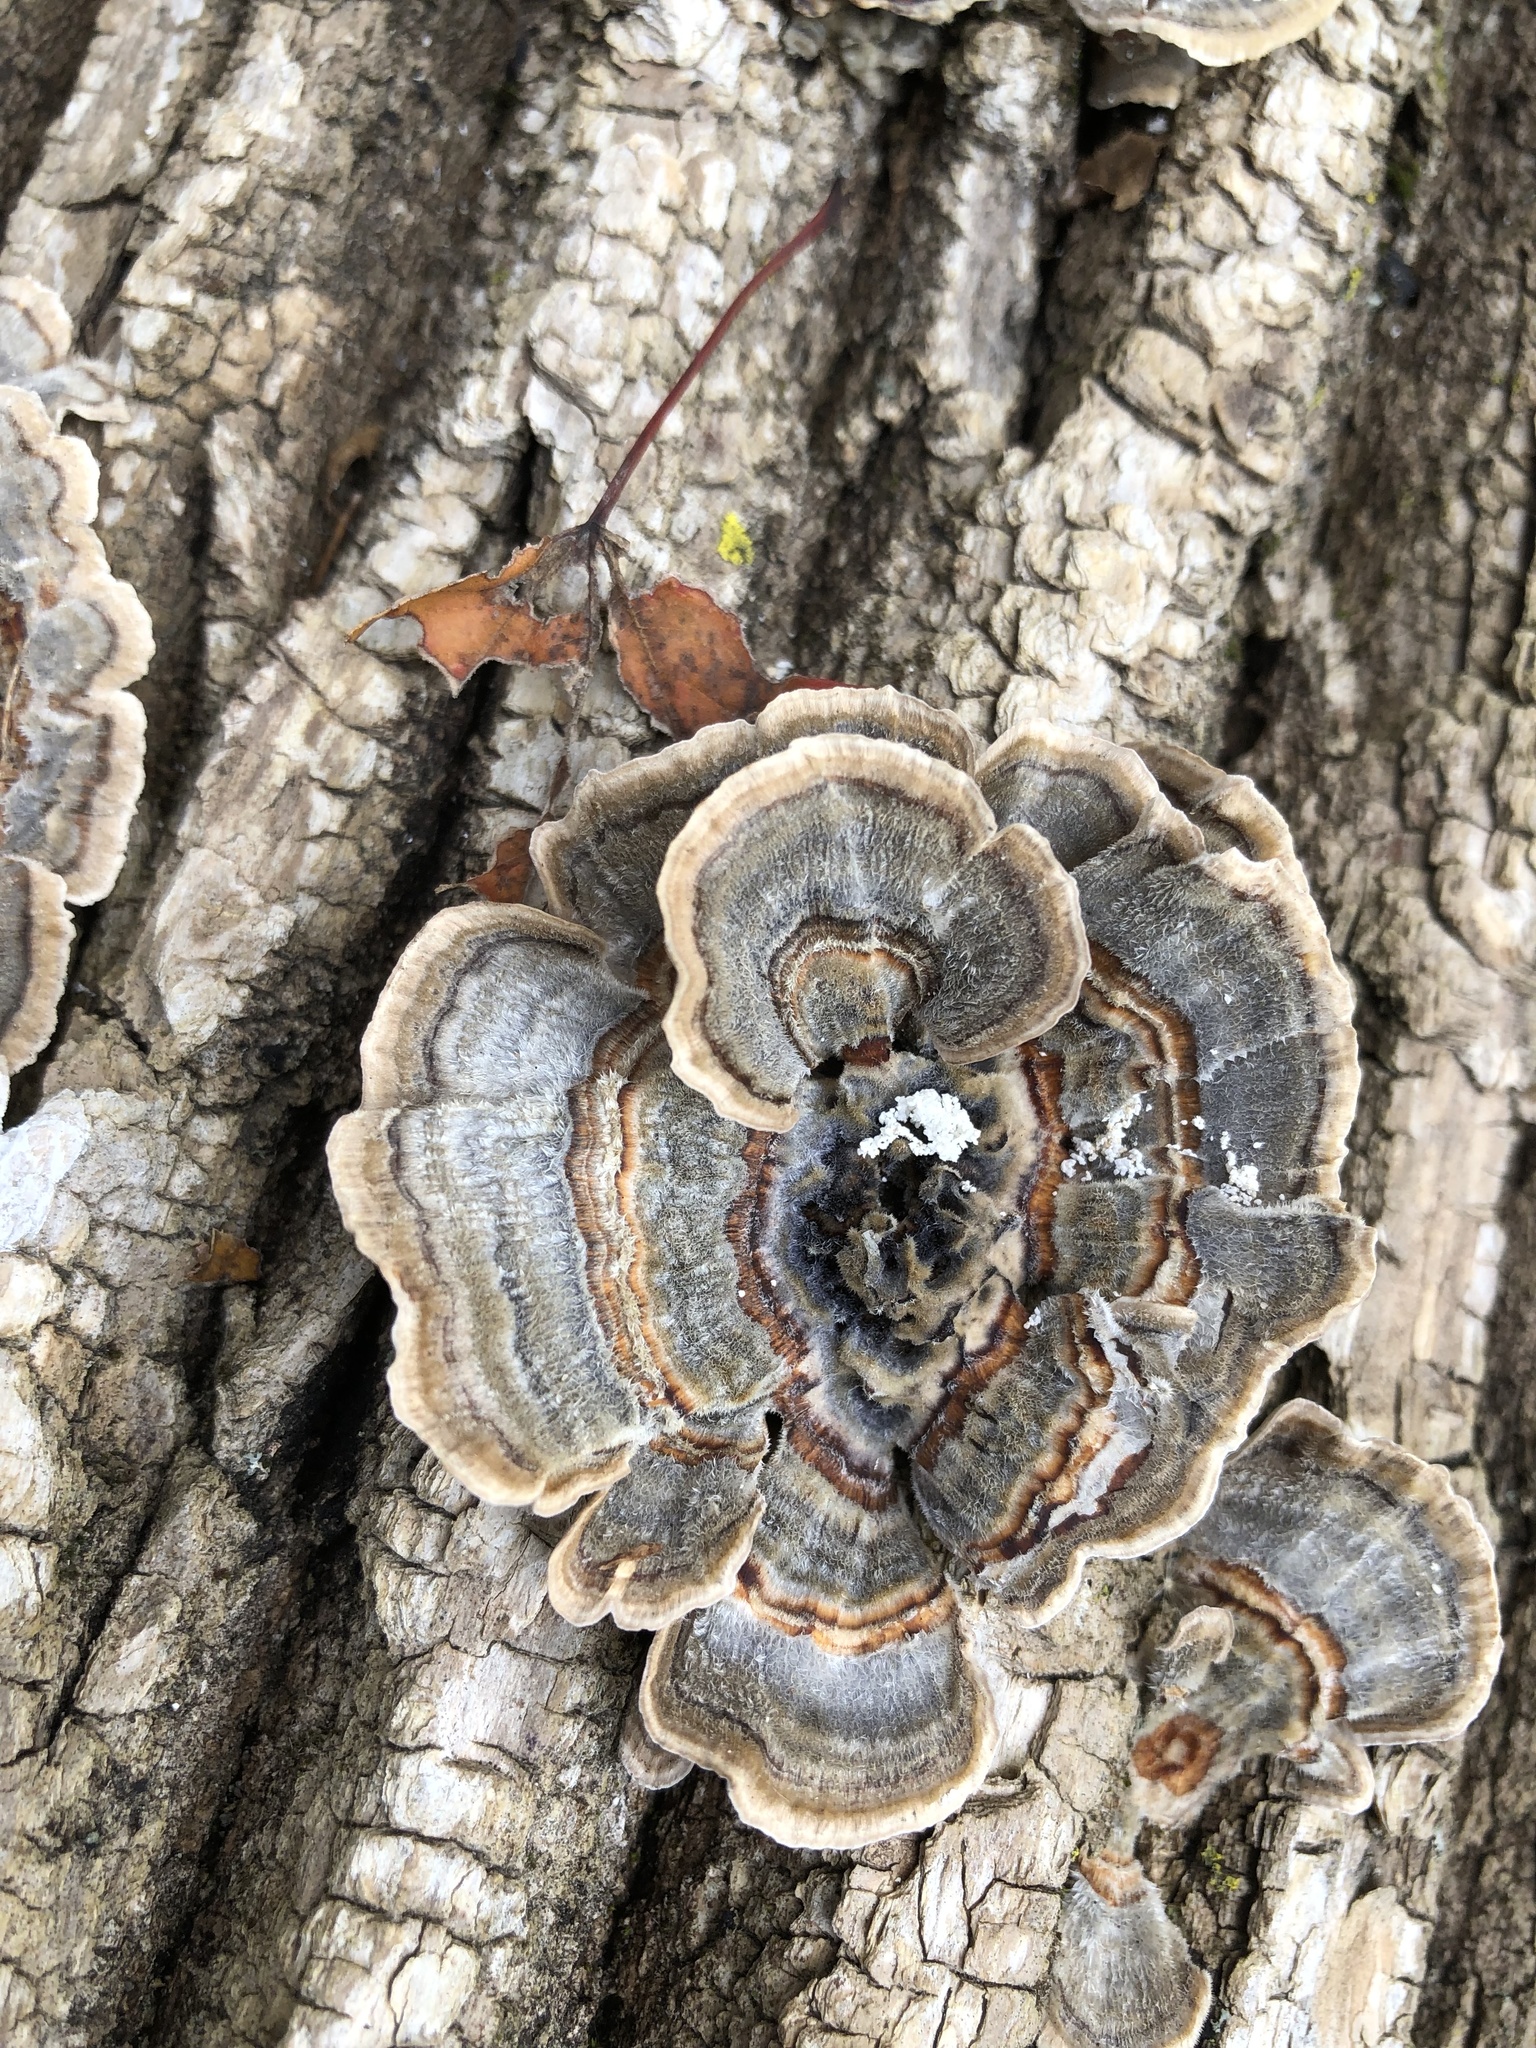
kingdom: Fungi
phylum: Basidiomycota
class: Agaricomycetes
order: Polyporales
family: Polyporaceae
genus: Trametes
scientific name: Trametes versicolor
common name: Turkeytail
